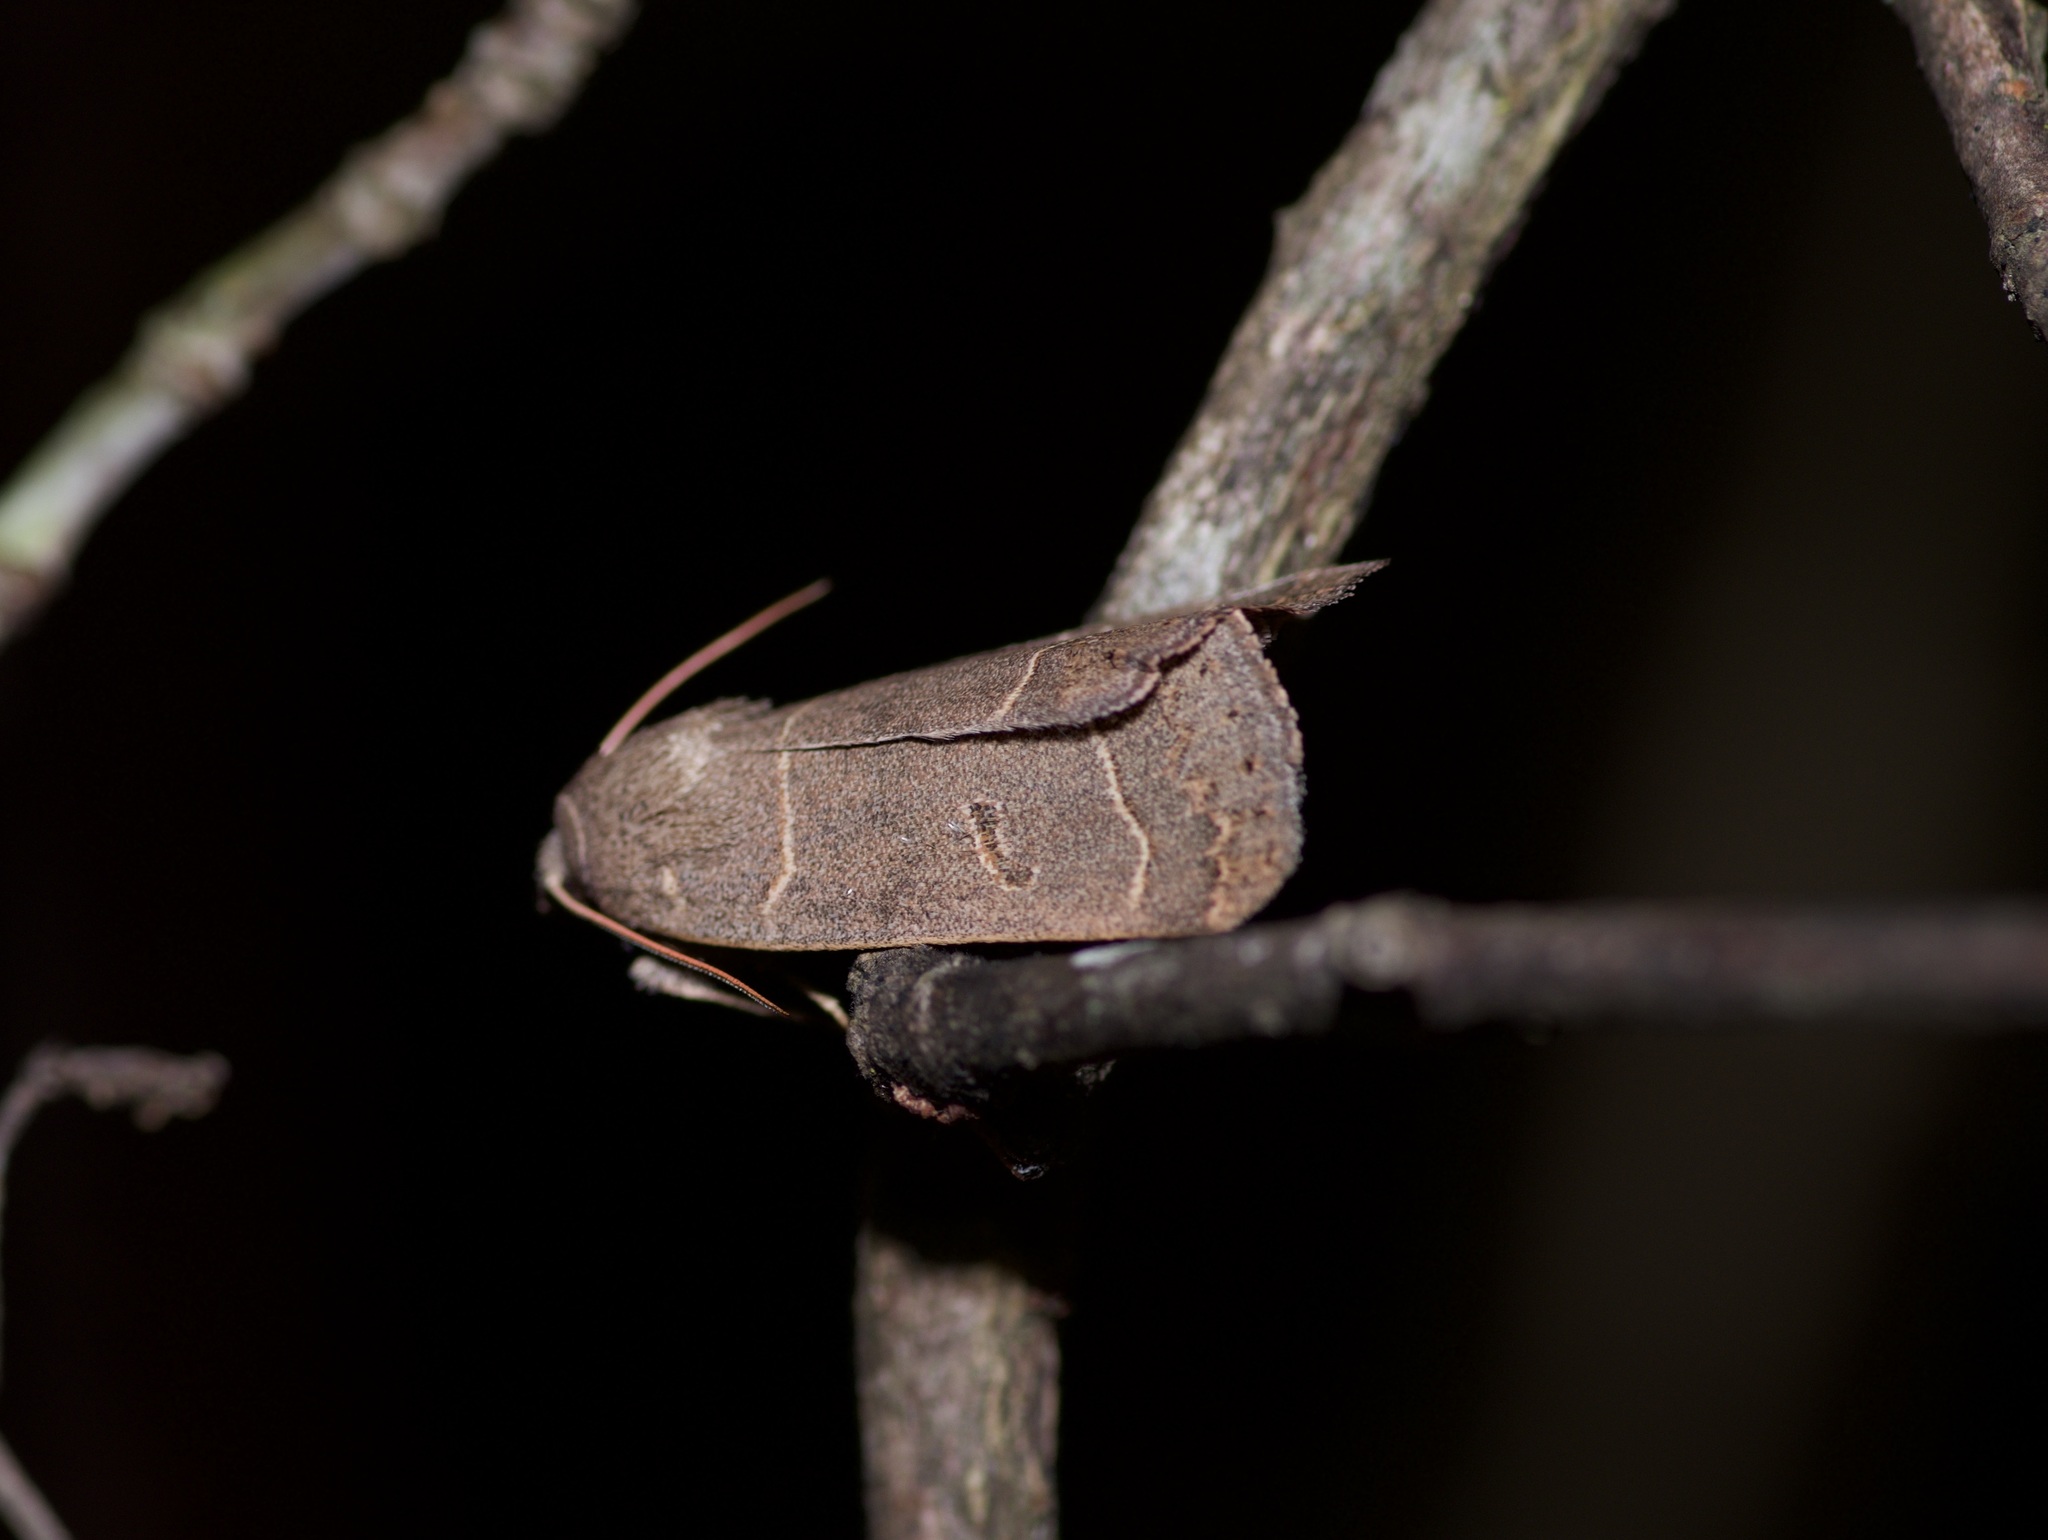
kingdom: Animalia
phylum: Arthropoda
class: Insecta
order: Lepidoptera
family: Erebidae
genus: Phoberia
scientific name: Phoberia atomaris
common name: Common oak moth
